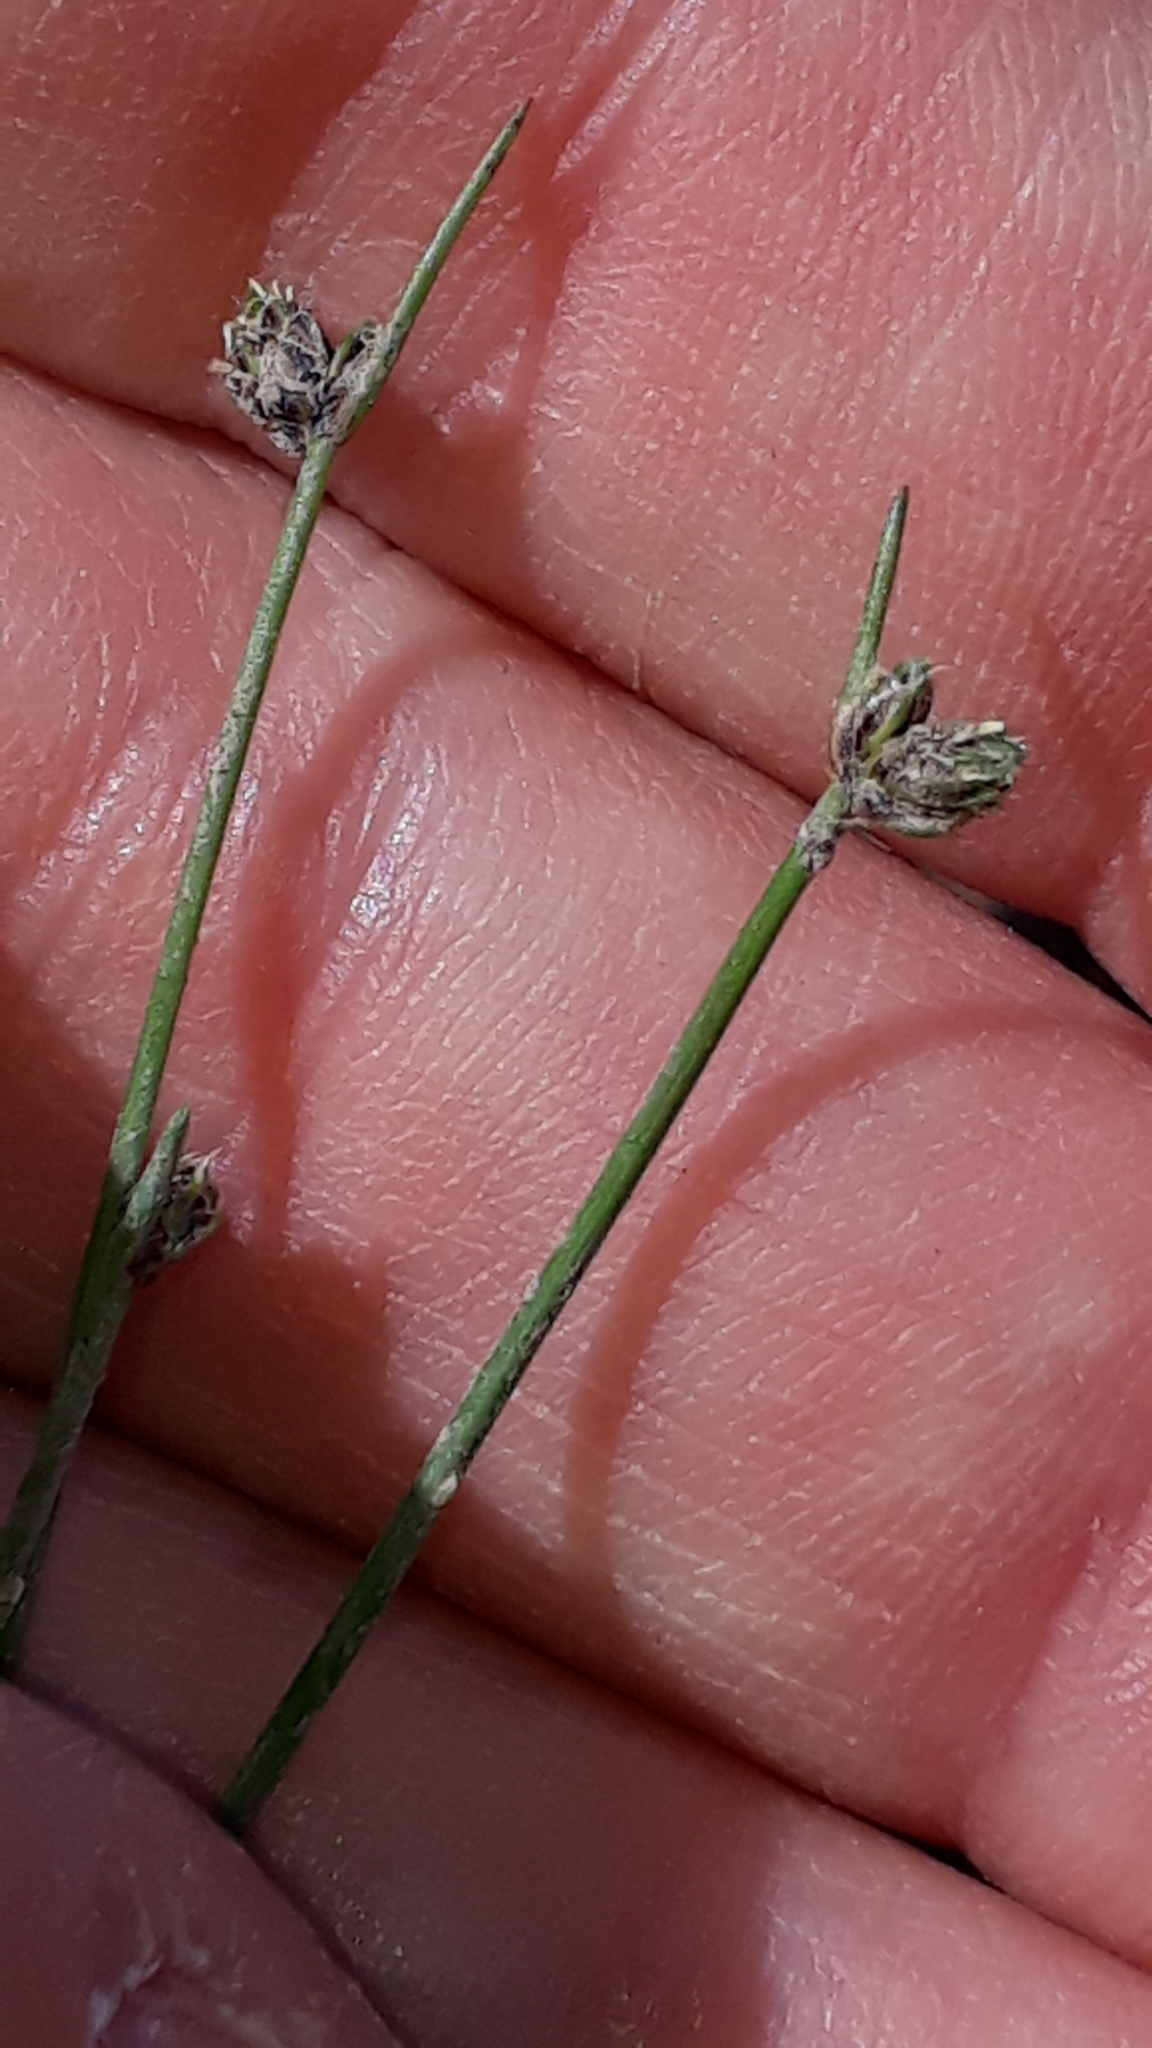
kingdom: Plantae
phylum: Tracheophyta
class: Liliopsida
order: Poales
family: Cyperaceae
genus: Isolepis
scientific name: Isolepis setacea
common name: Bristle club-rush
